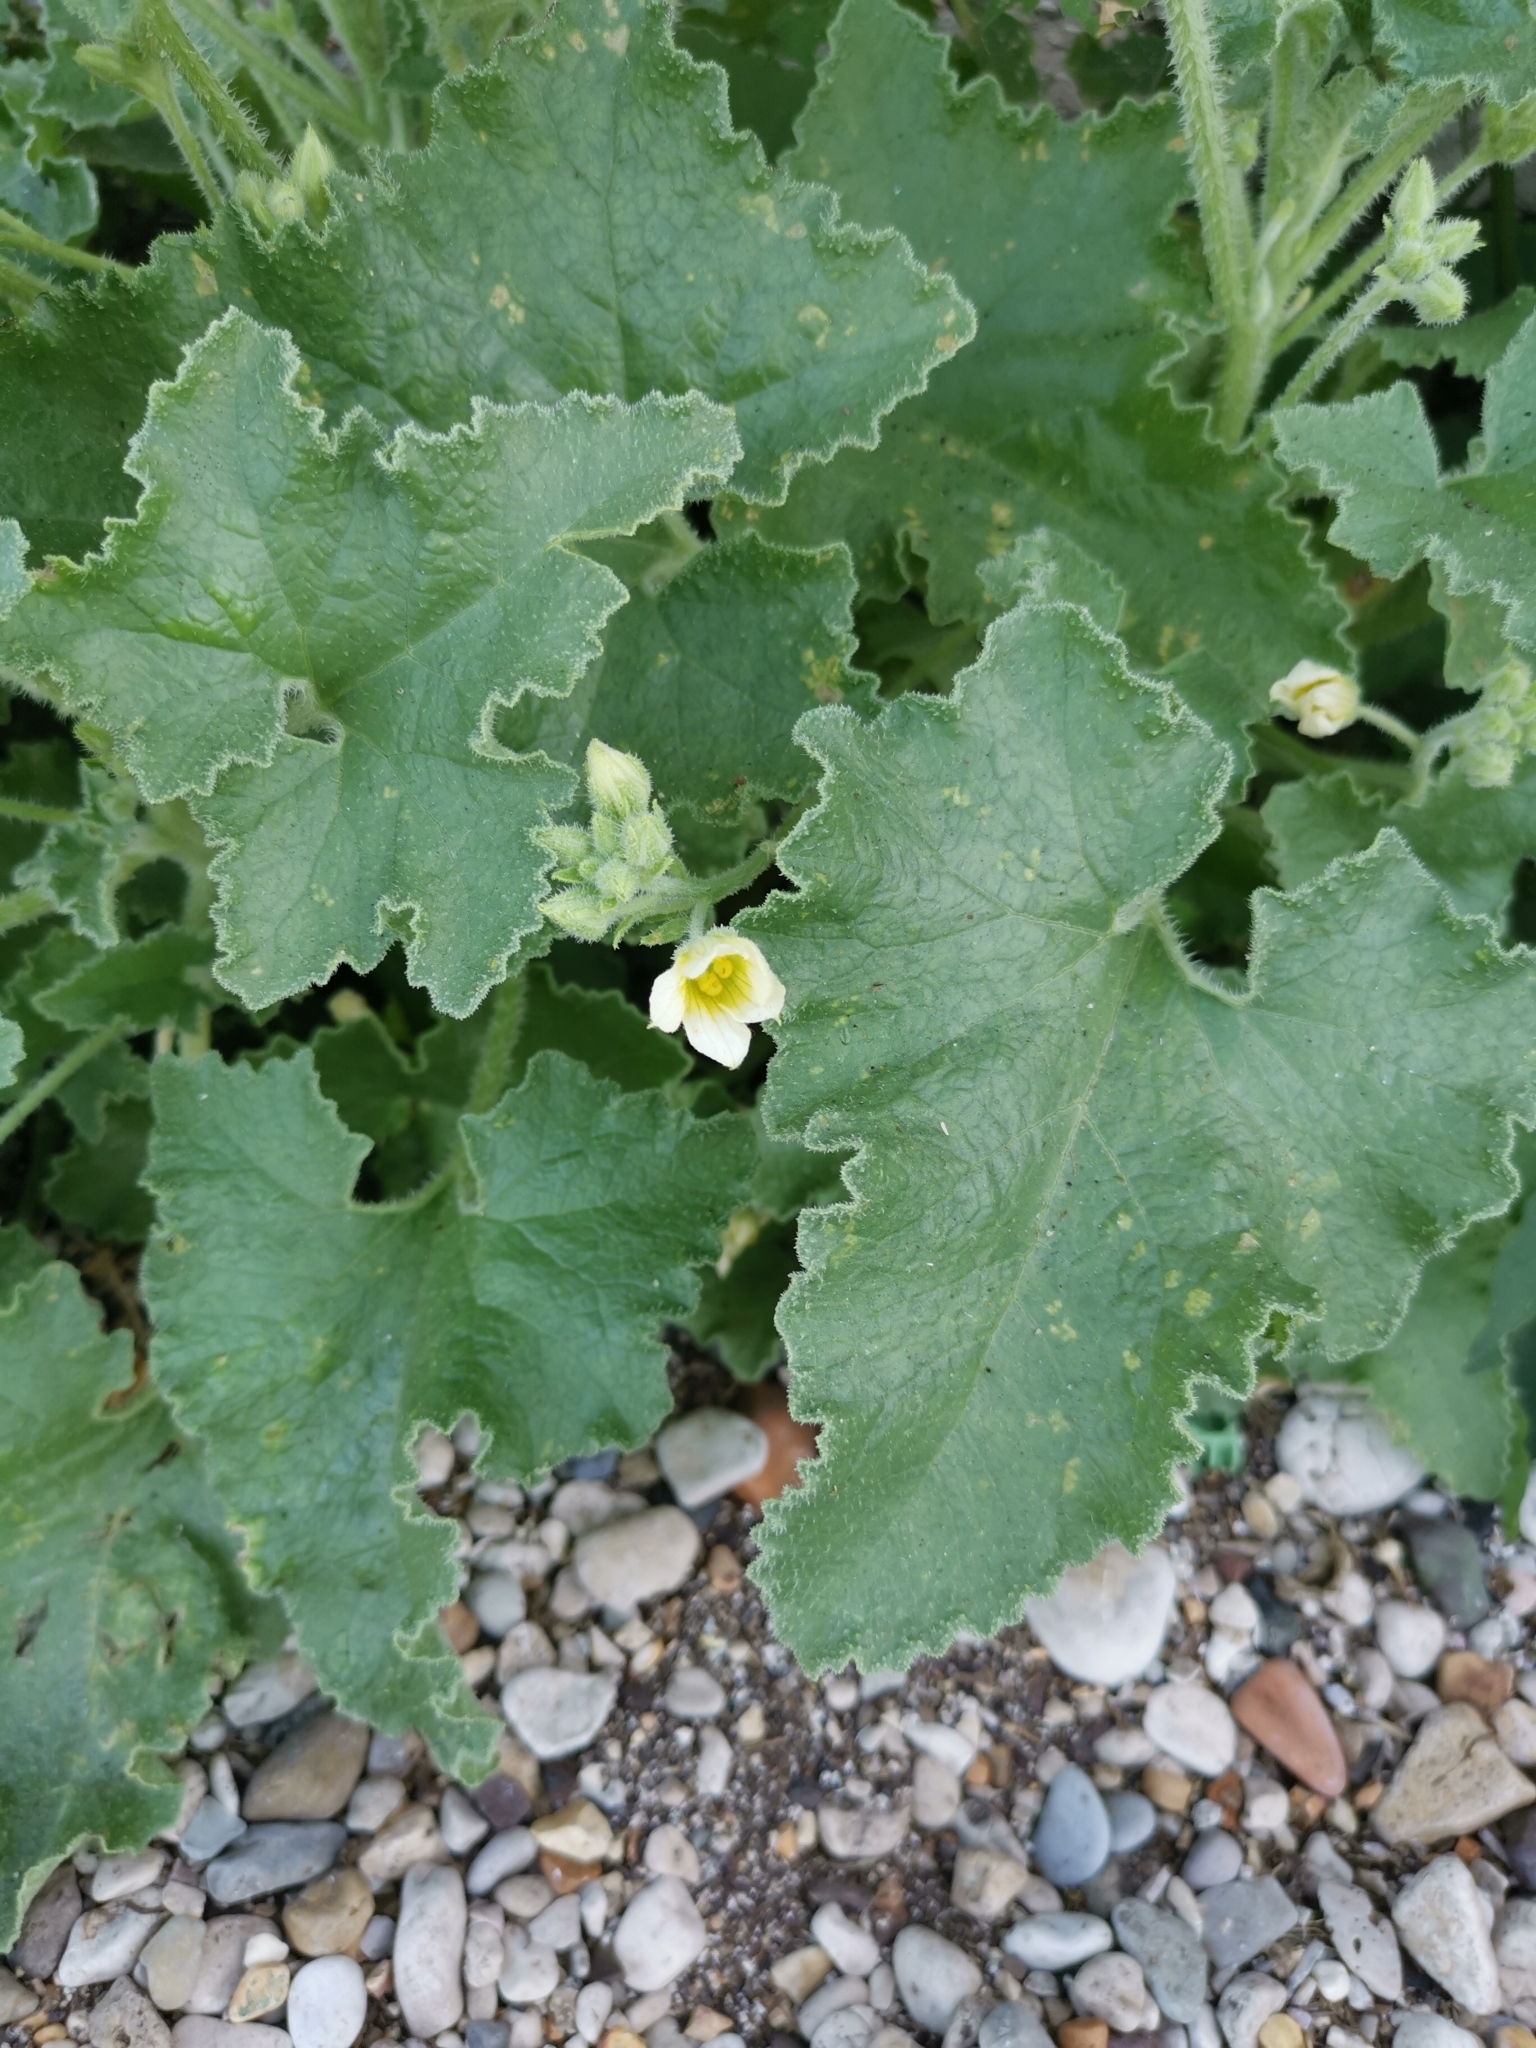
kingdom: Plantae
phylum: Tracheophyta
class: Magnoliopsida
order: Cucurbitales
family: Cucurbitaceae
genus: Ecballium
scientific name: Ecballium elaterium
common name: Squirting cucumber
